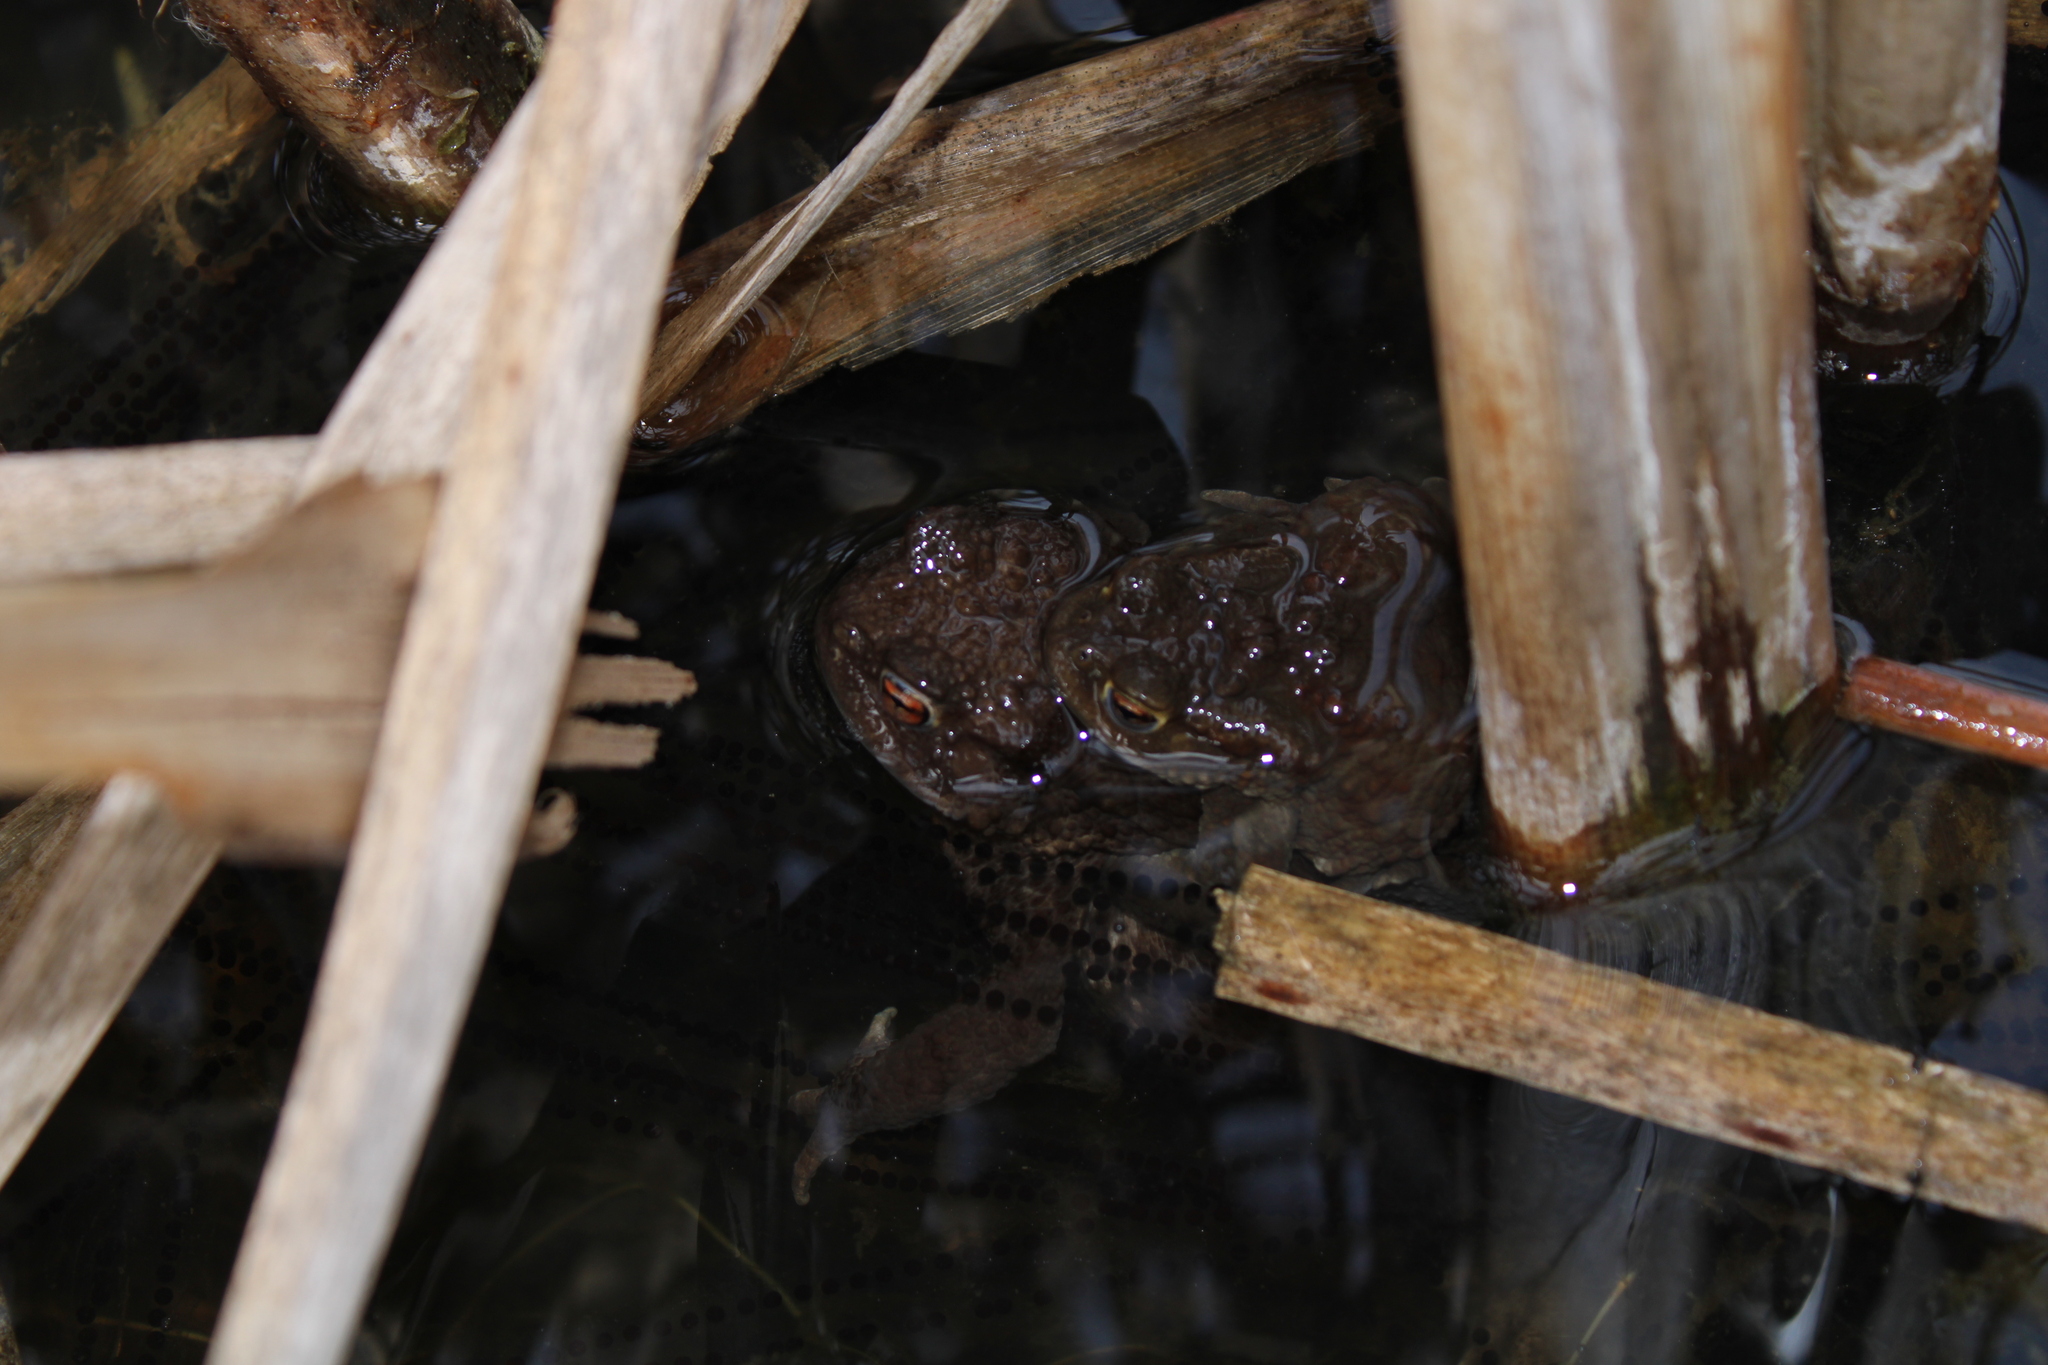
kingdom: Animalia
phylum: Chordata
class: Amphibia
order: Anura
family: Bufonidae
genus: Bufo
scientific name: Bufo bufo
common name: Common toad
